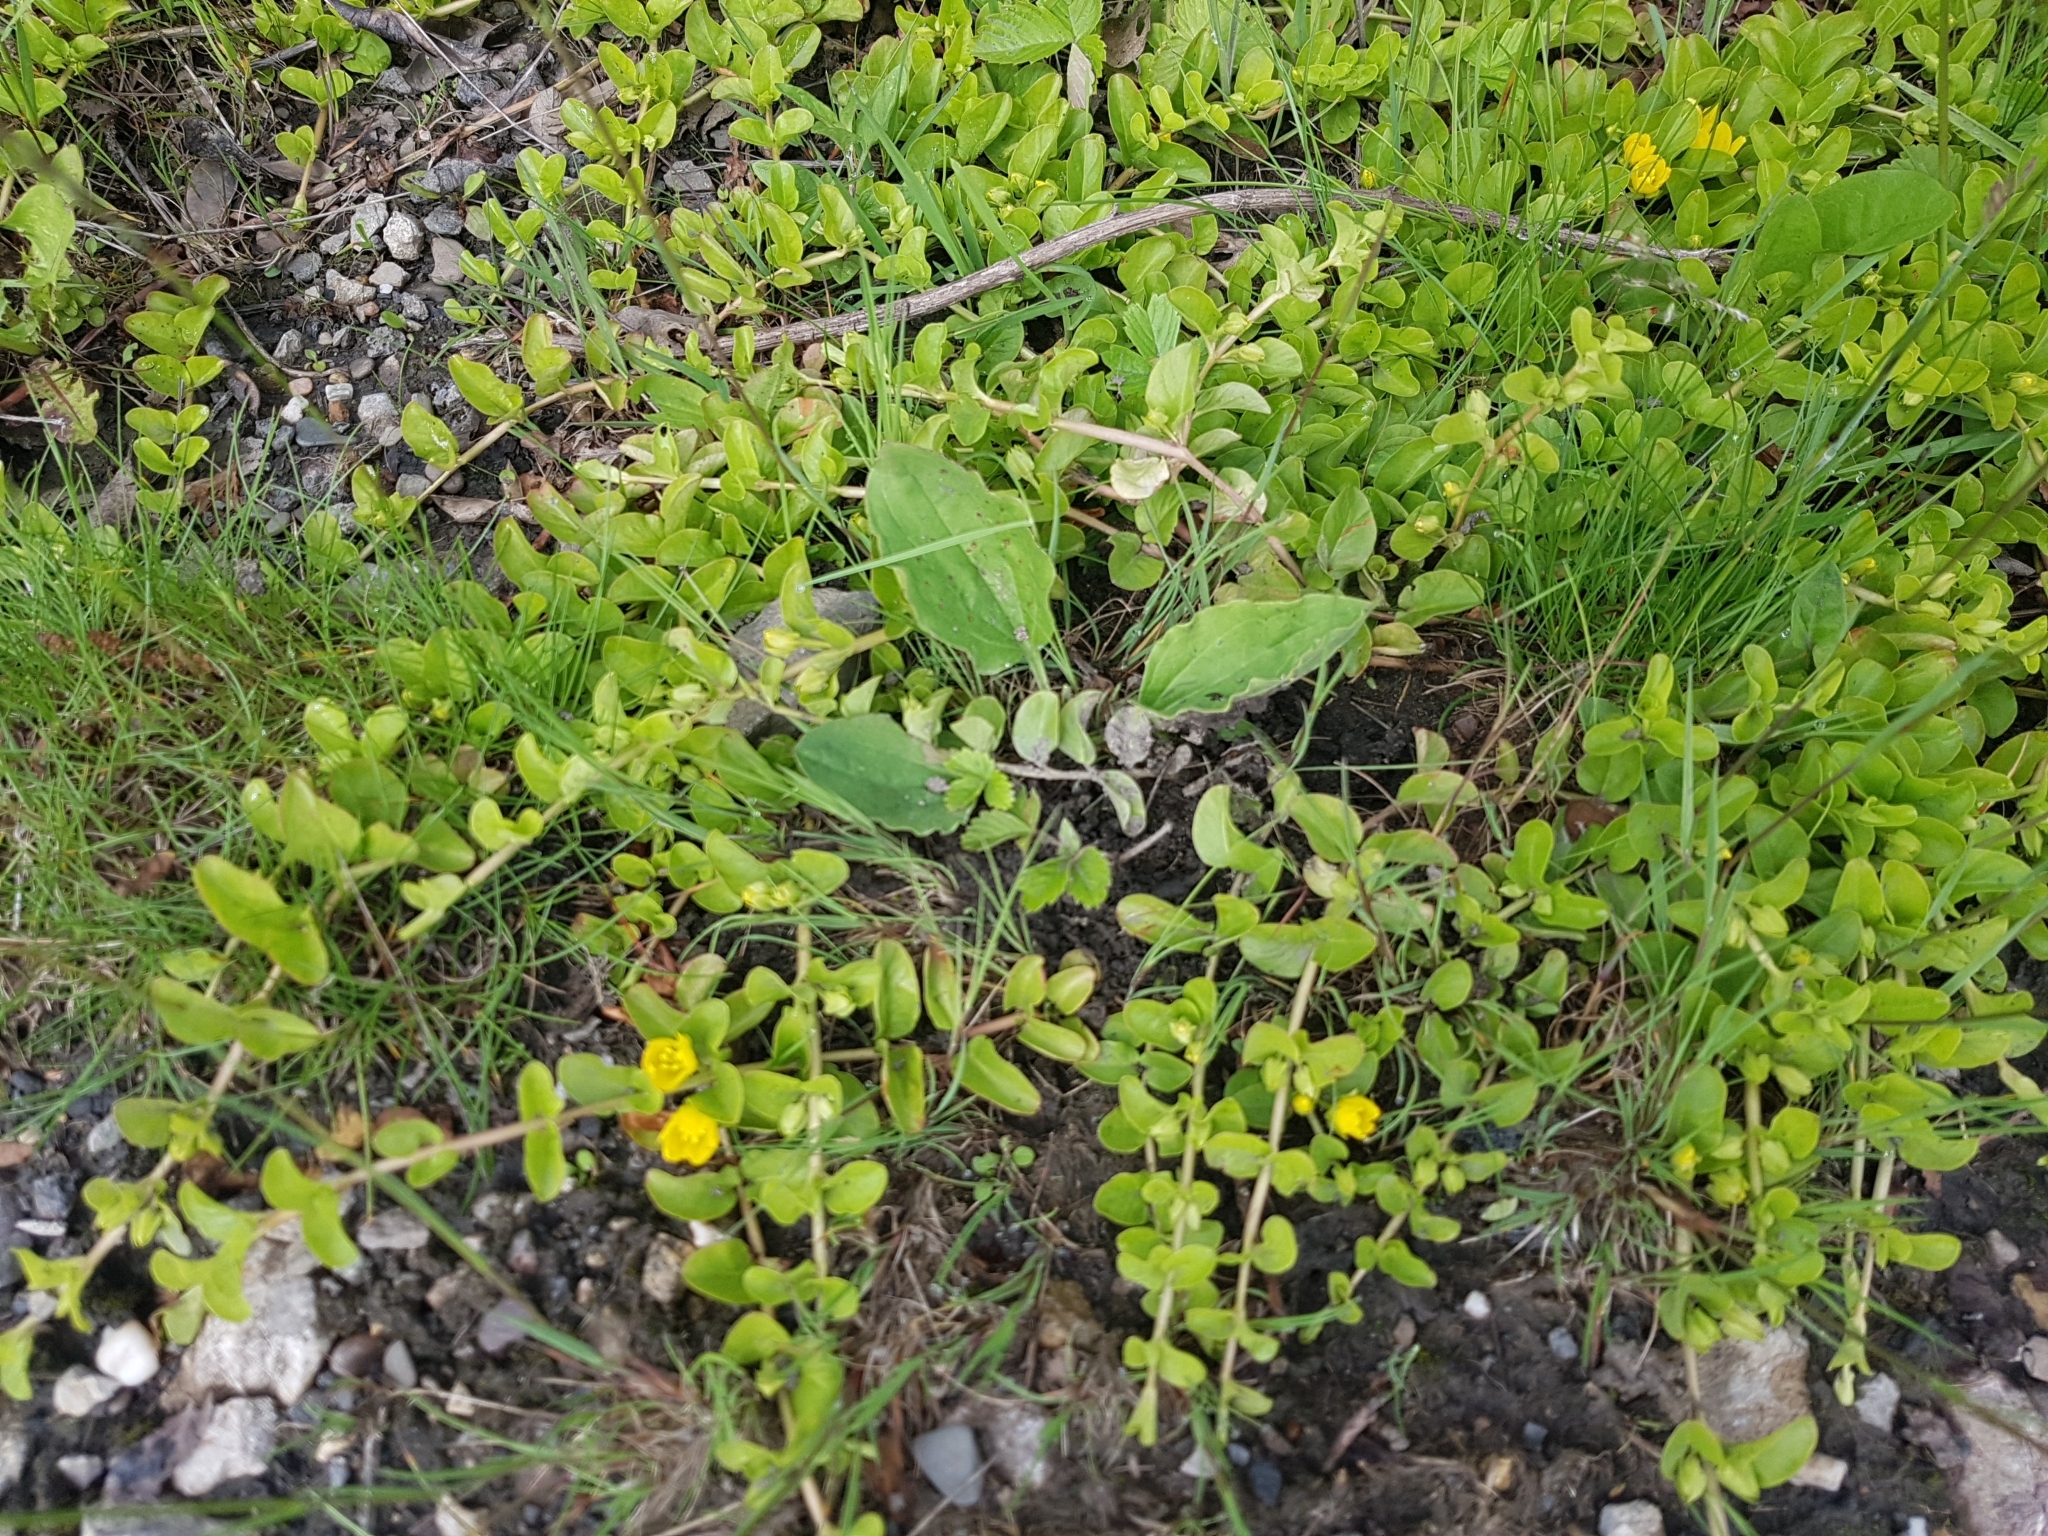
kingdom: Plantae
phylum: Tracheophyta
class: Magnoliopsida
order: Ericales
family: Primulaceae
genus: Lysimachia
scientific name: Lysimachia nummularia
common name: Moneywort
